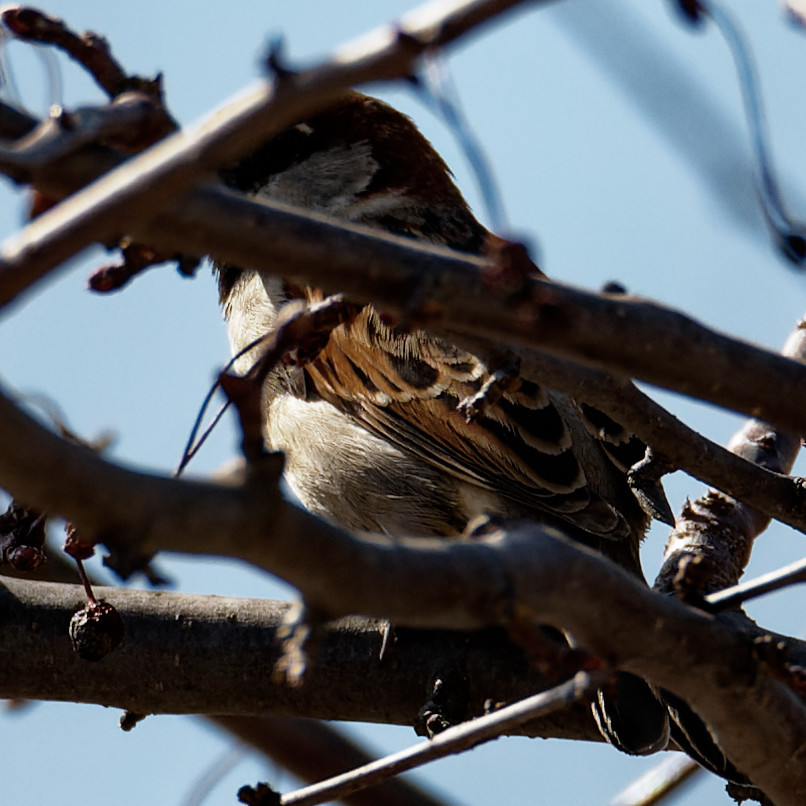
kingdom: Animalia
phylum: Chordata
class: Aves
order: Passeriformes
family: Passeridae
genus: Passer
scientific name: Passer domesticus
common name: House sparrow
